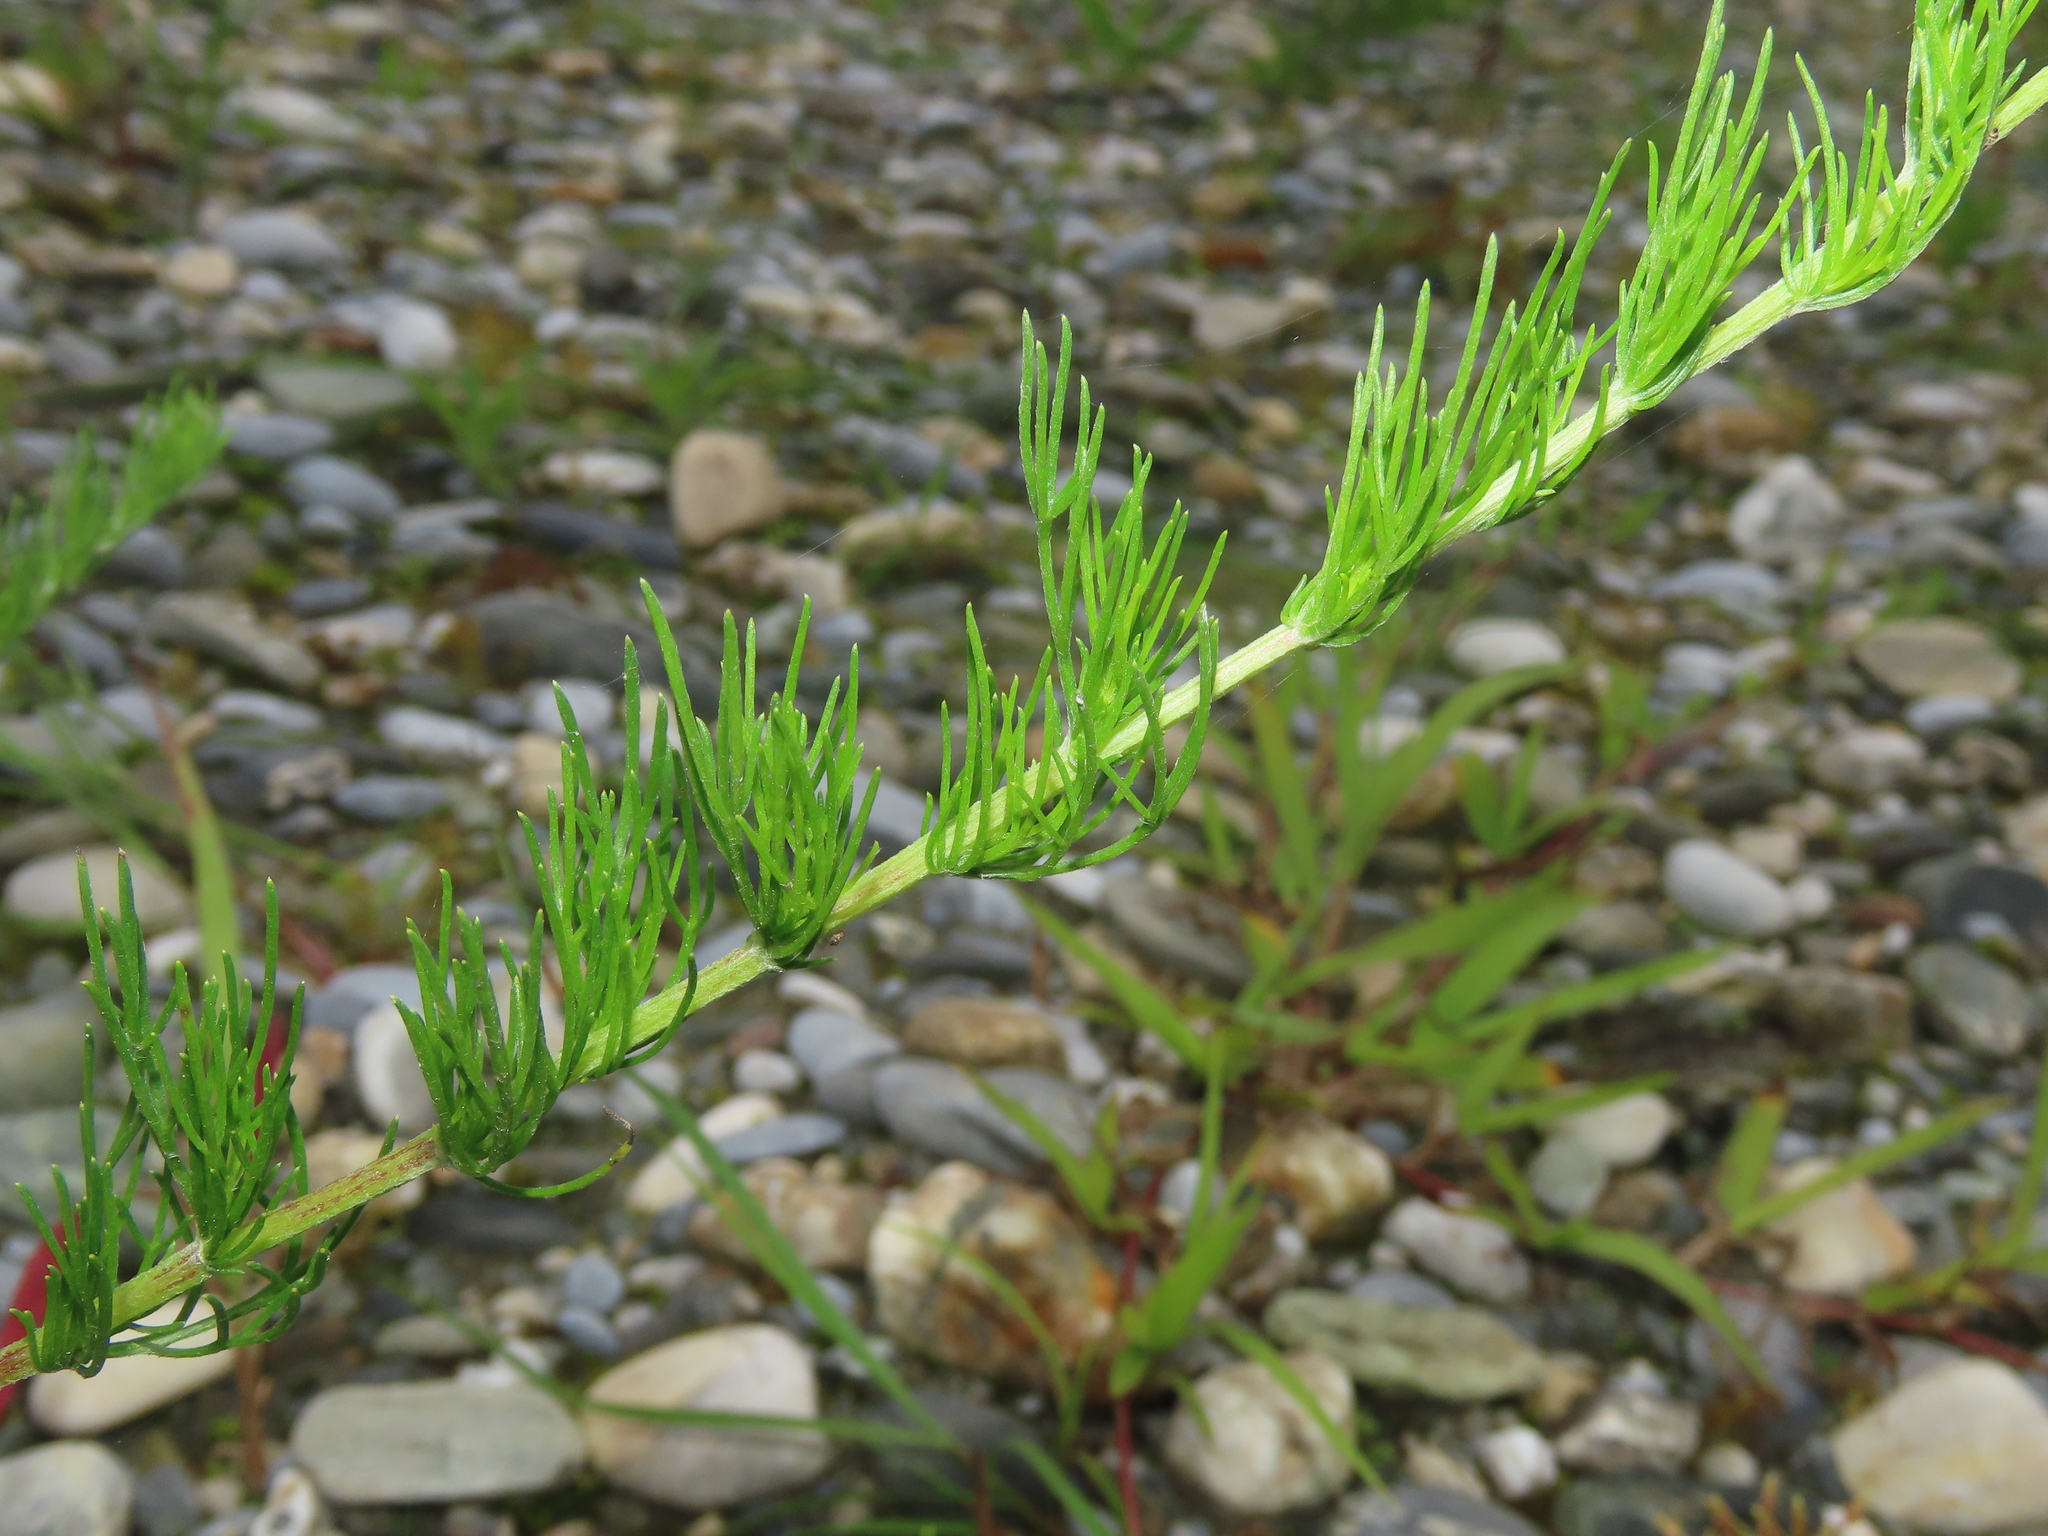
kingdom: Plantae
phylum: Tracheophyta
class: Magnoliopsida
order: Asterales
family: Asteraceae
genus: Artemisia
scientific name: Artemisia capillaris
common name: Yin-chen wormwood
